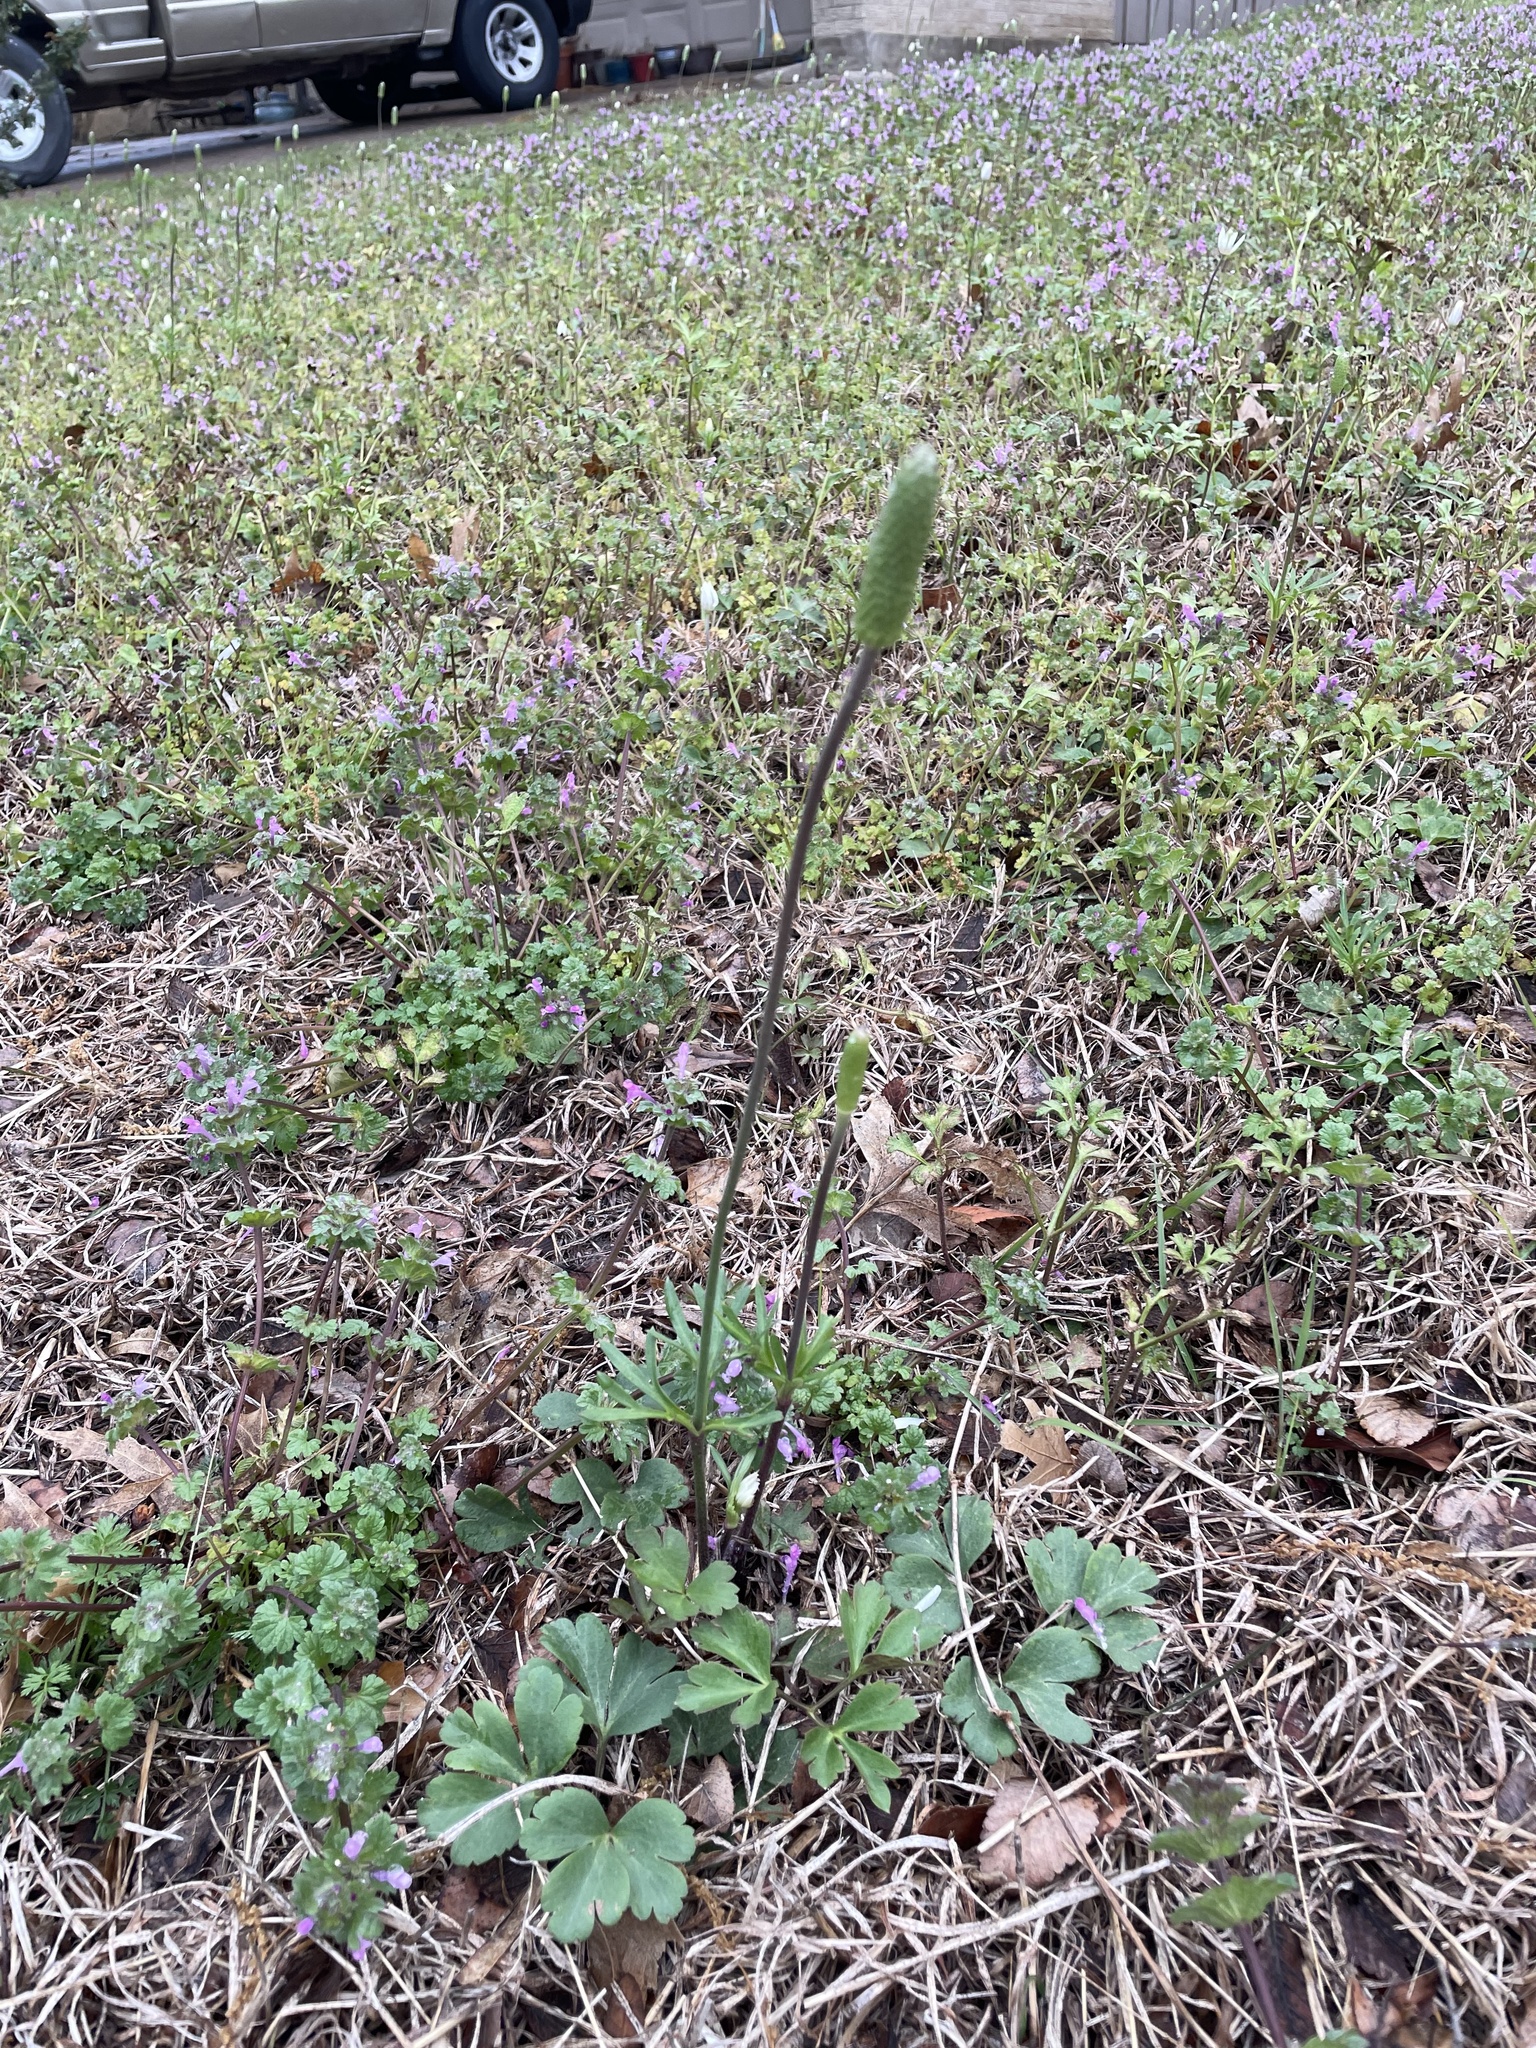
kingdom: Plantae
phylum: Tracheophyta
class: Magnoliopsida
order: Ranunculales
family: Ranunculaceae
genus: Anemone
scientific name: Anemone berlandieri
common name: Ten-petal anemone
